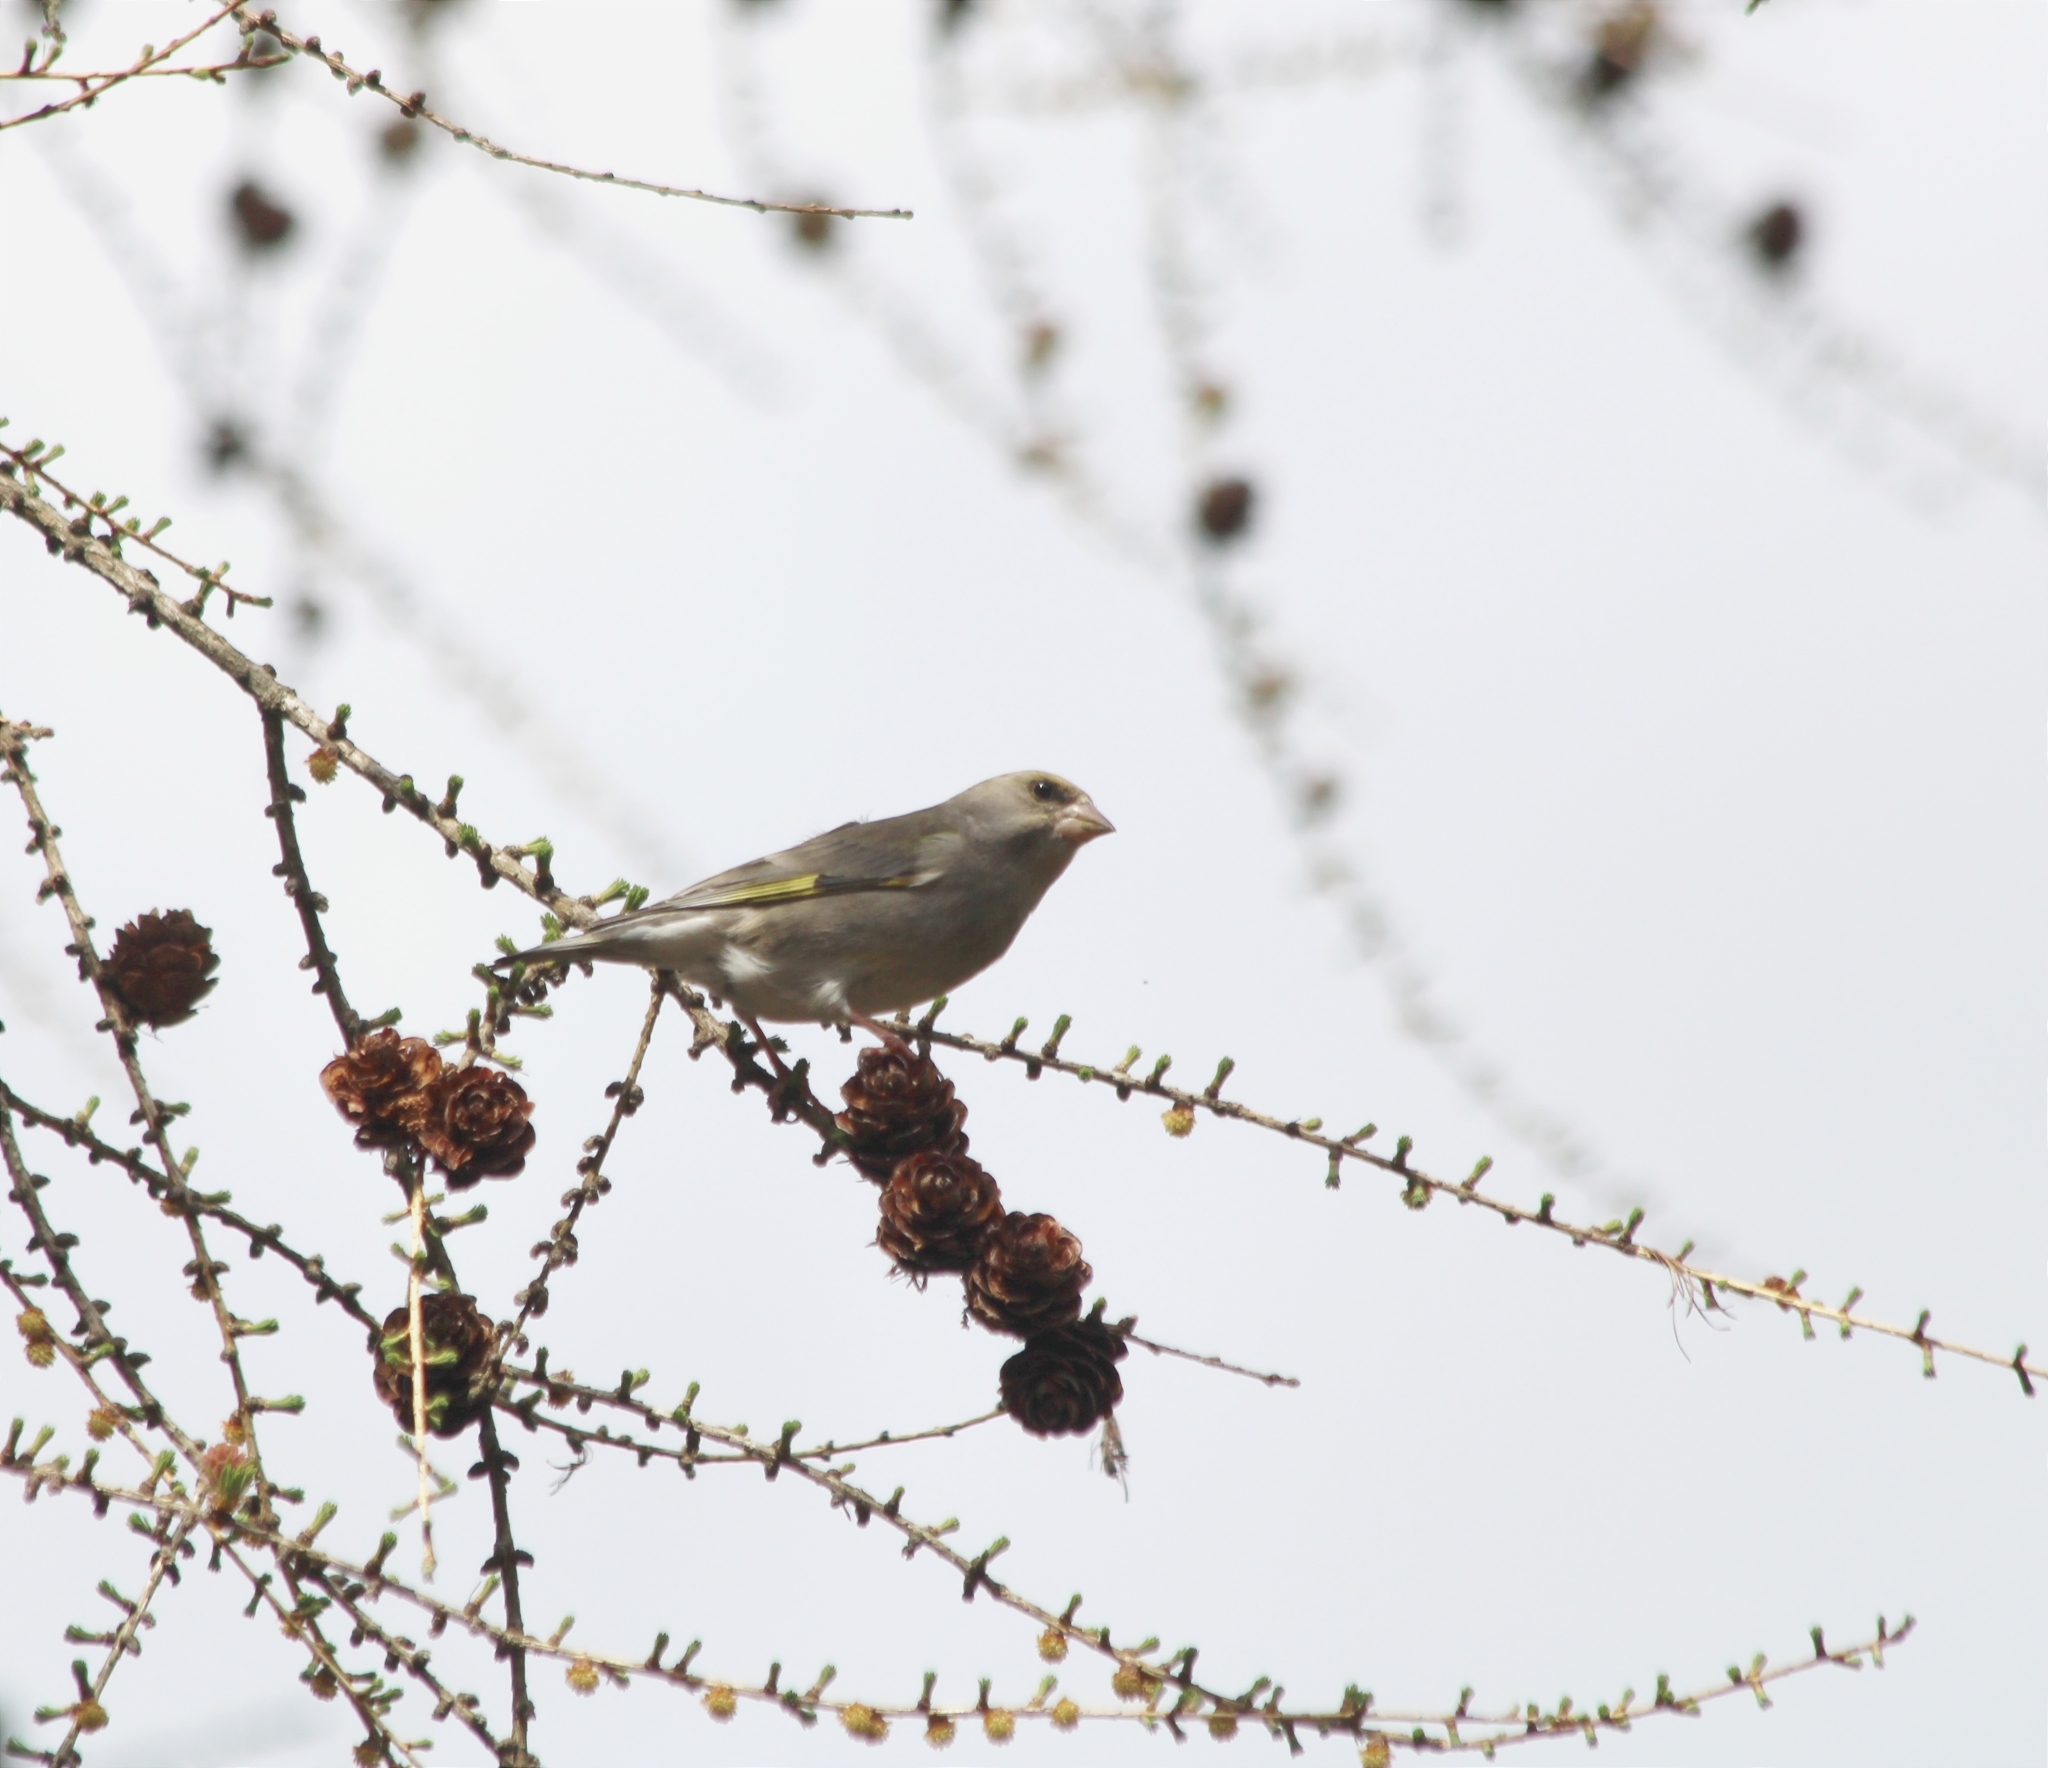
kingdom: Plantae
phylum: Tracheophyta
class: Liliopsida
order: Poales
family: Poaceae
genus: Chloris
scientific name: Chloris chloris
